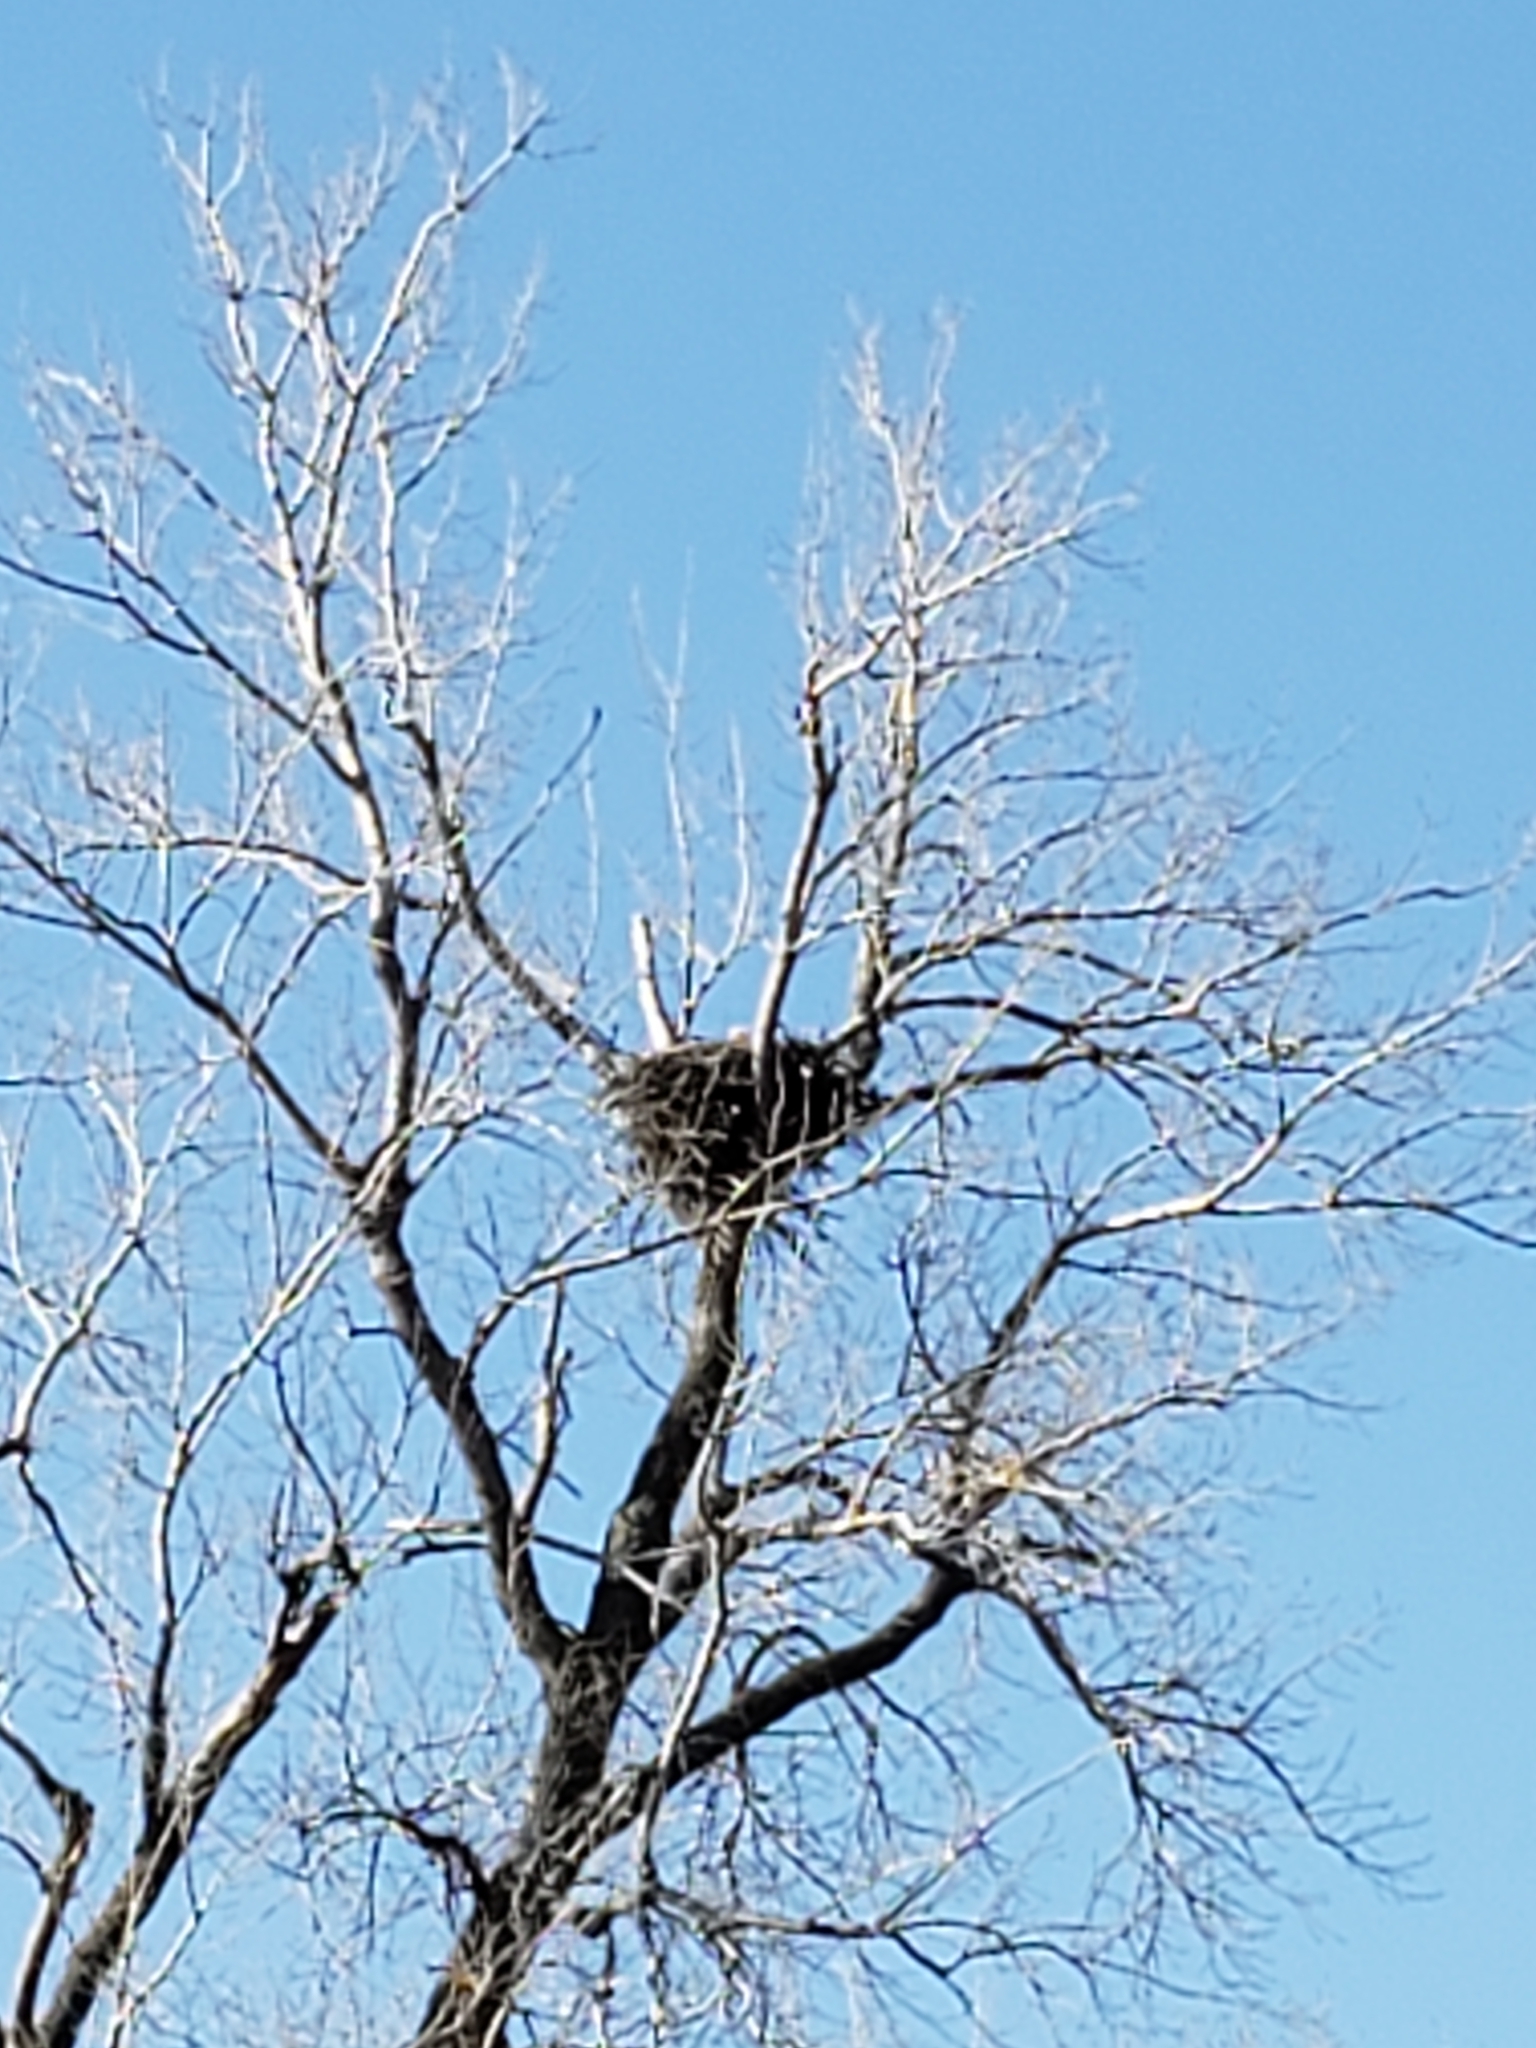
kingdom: Animalia
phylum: Chordata
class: Aves
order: Accipitriformes
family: Accipitridae
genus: Haliaeetus
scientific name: Haliaeetus leucocephalus
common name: Bald eagle
